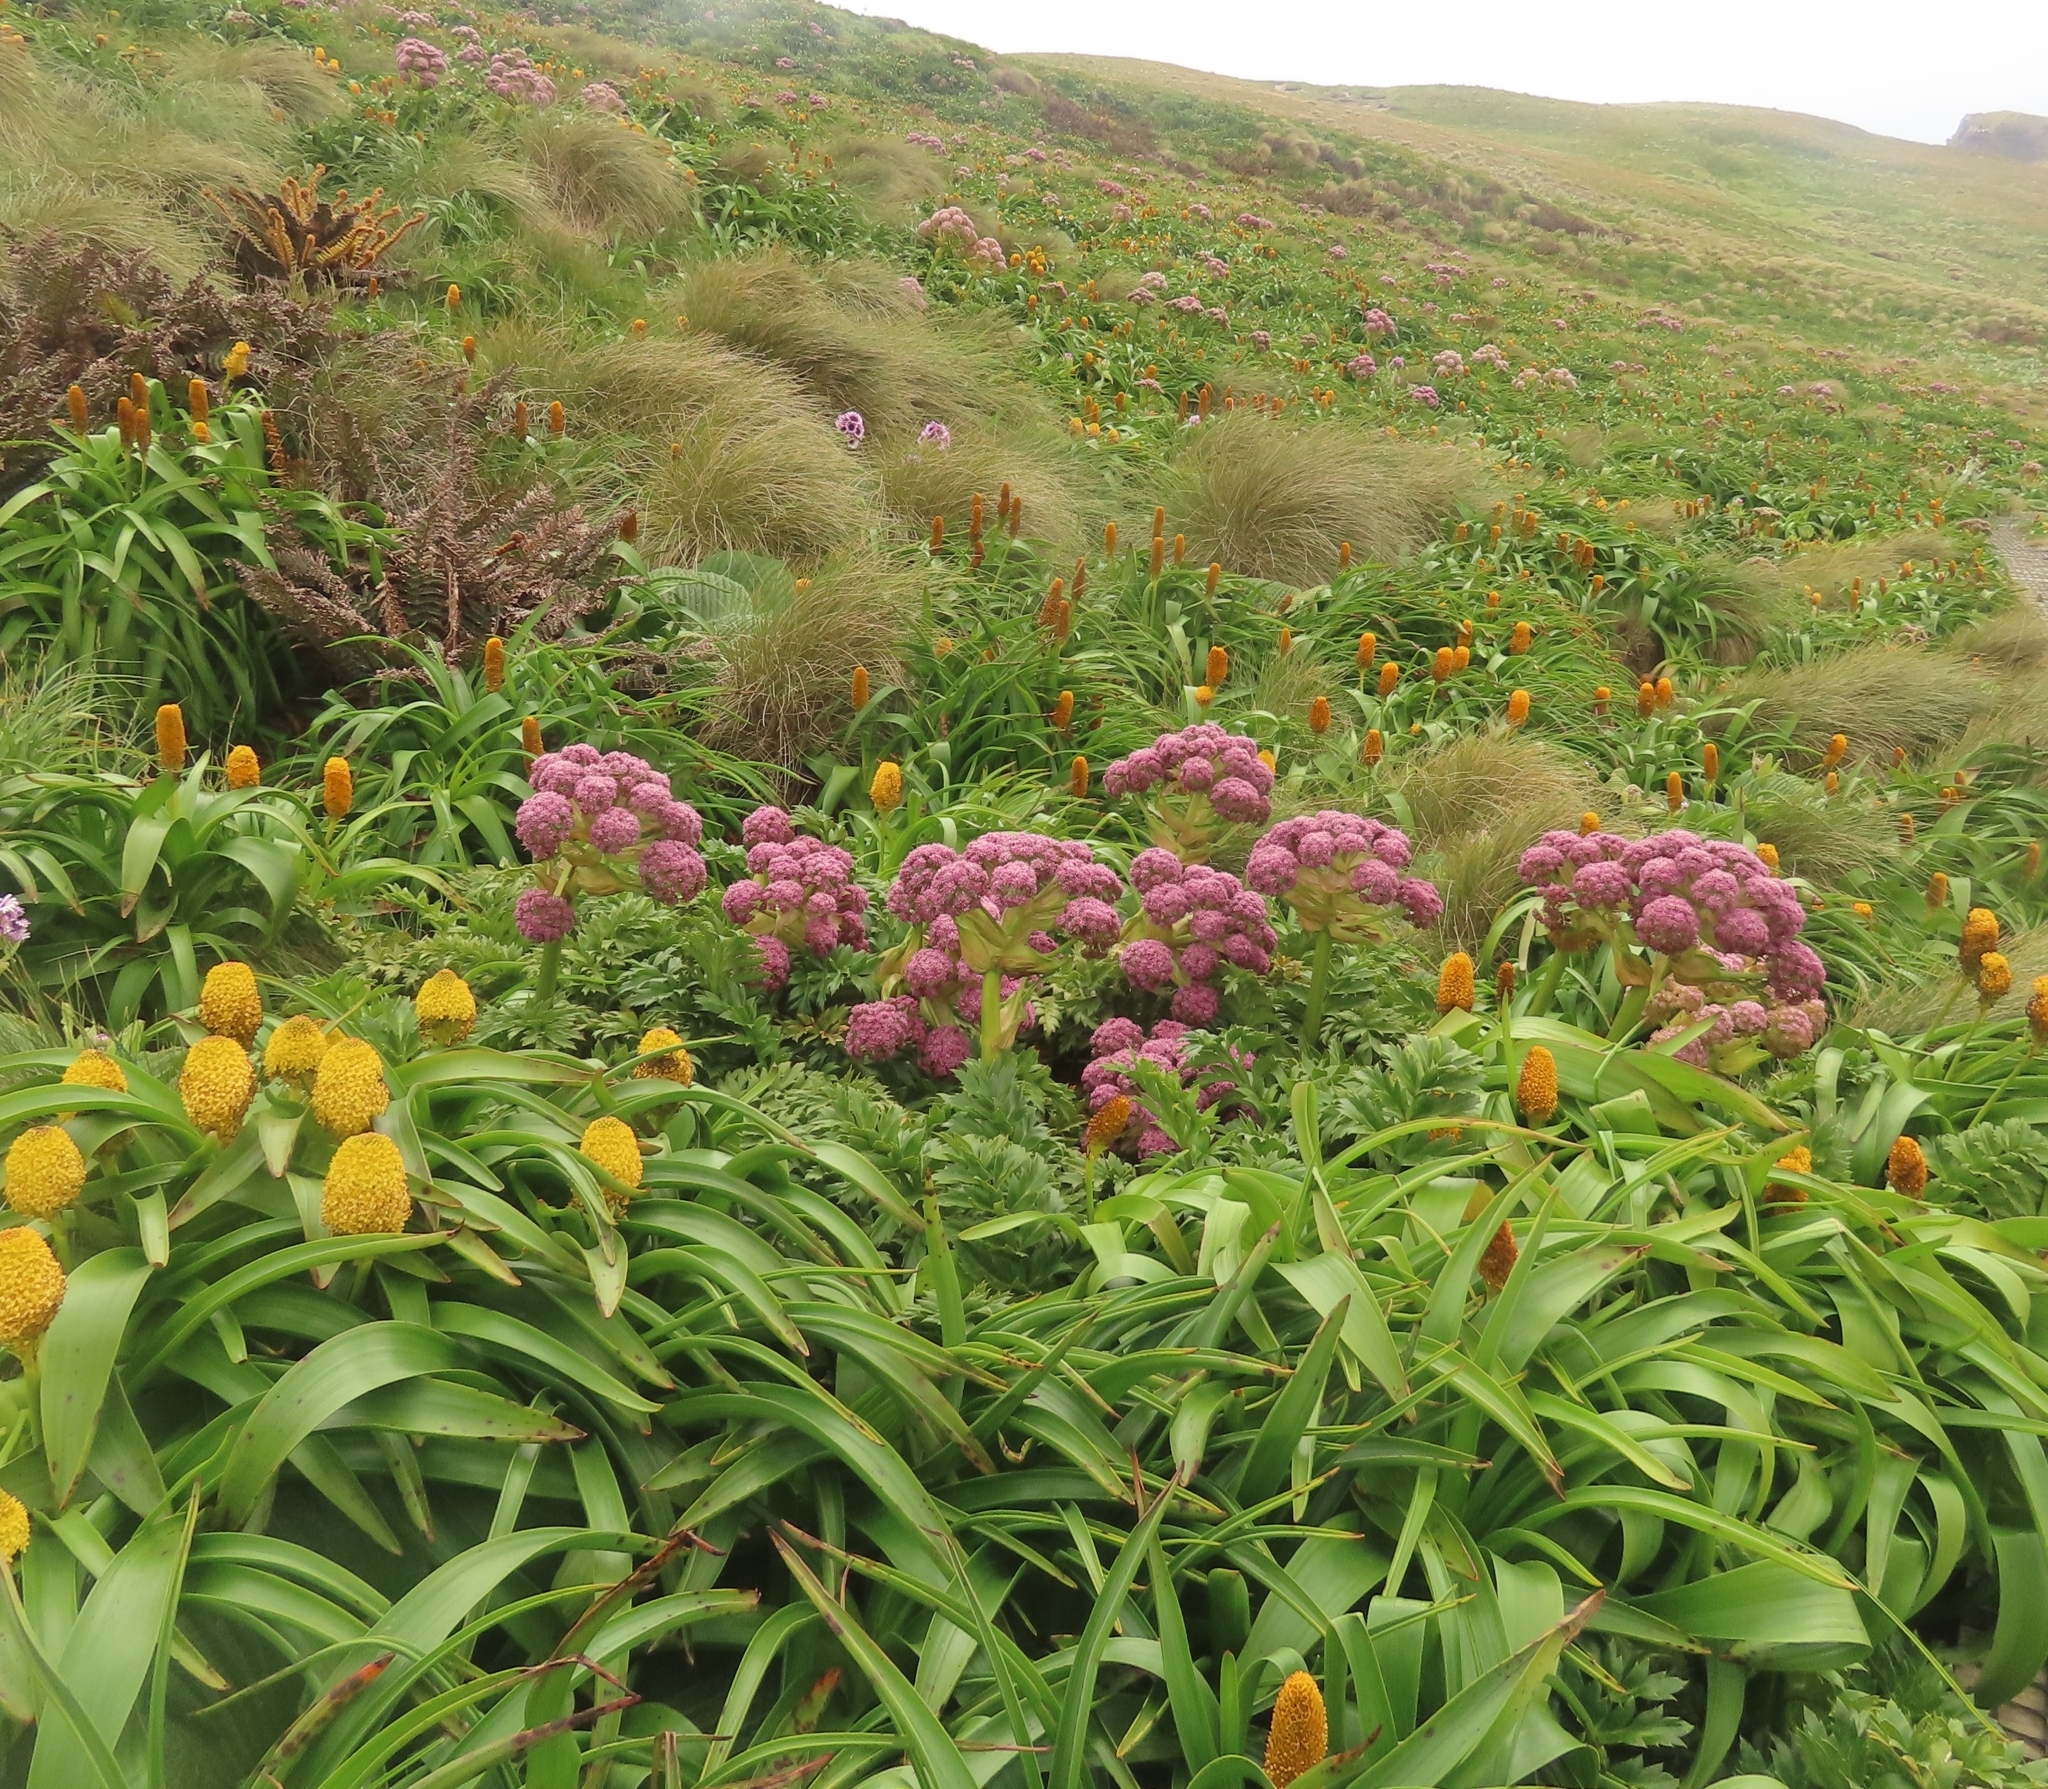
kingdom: Plantae
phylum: Tracheophyta
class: Magnoliopsida
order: Apiales
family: Apiaceae
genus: Anisotome
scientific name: Anisotome latifolia
